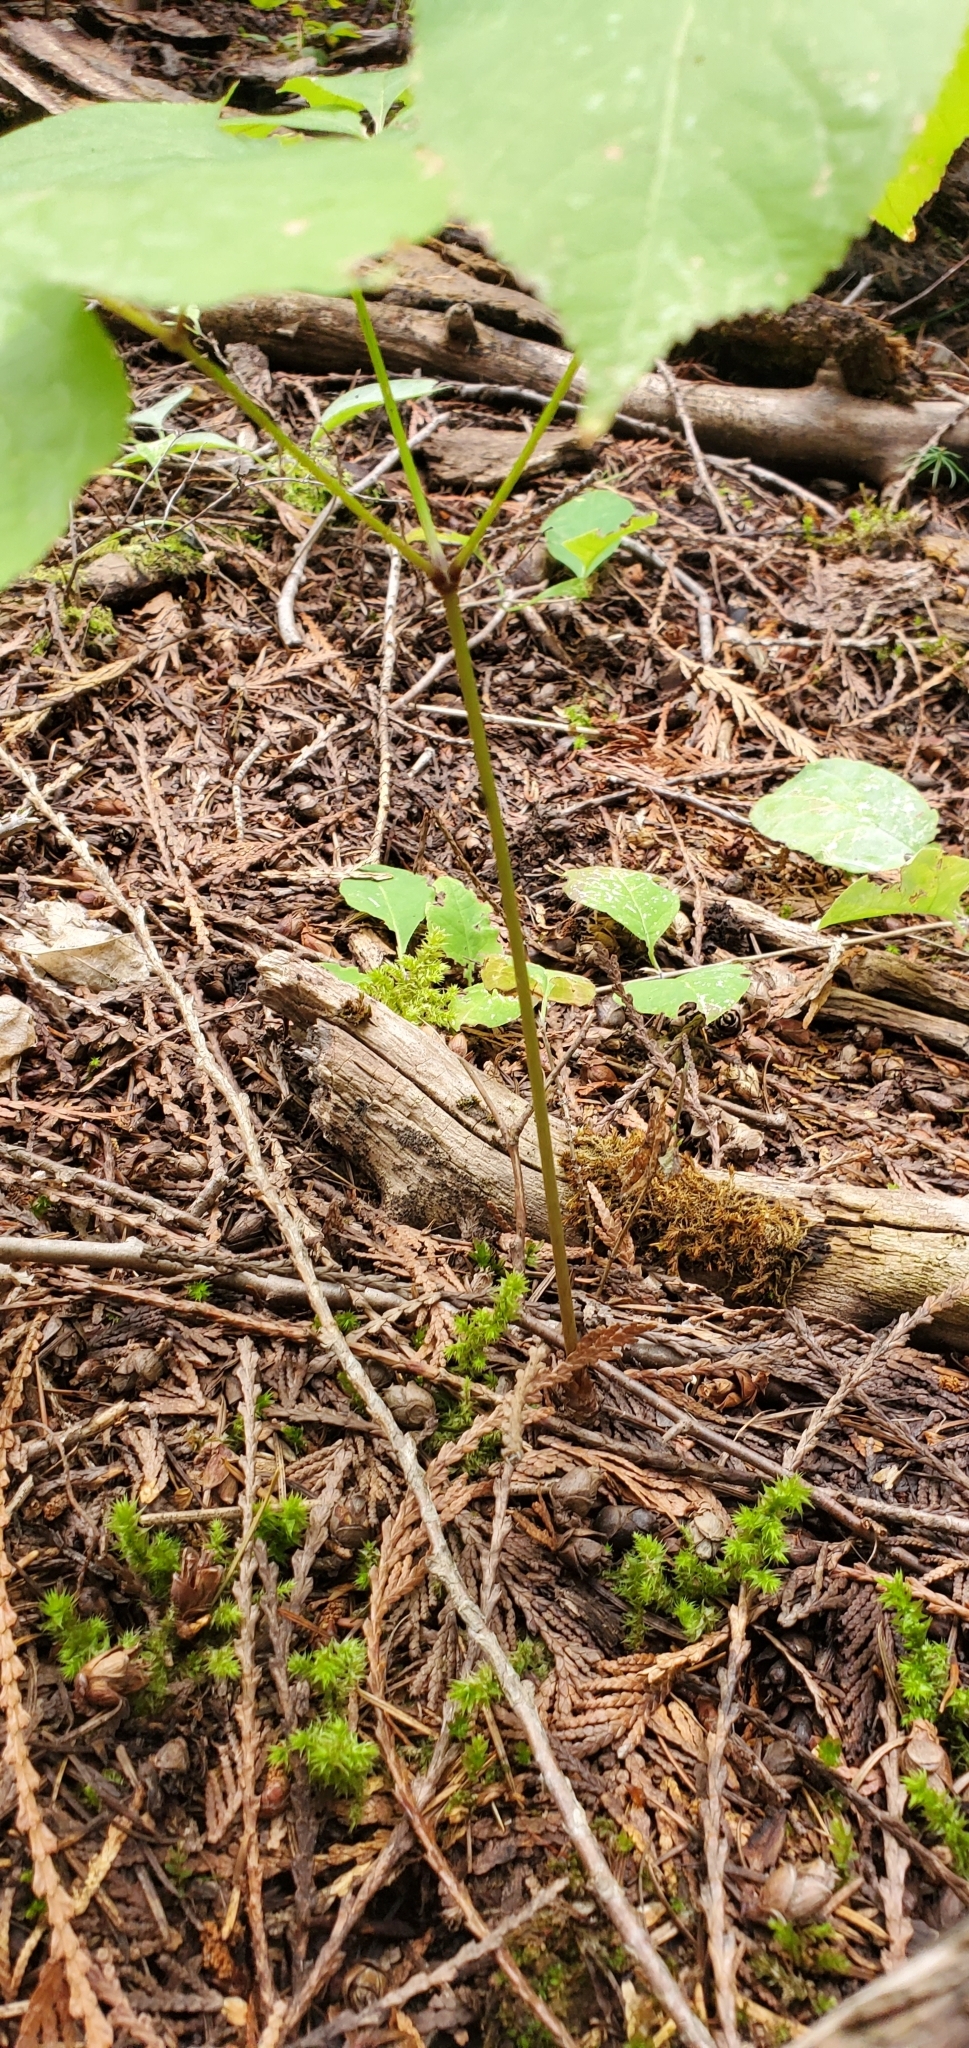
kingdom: Plantae
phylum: Tracheophyta
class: Magnoliopsida
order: Apiales
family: Araliaceae
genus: Aralia
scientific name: Aralia nudicaulis
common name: Wild sarsaparilla
